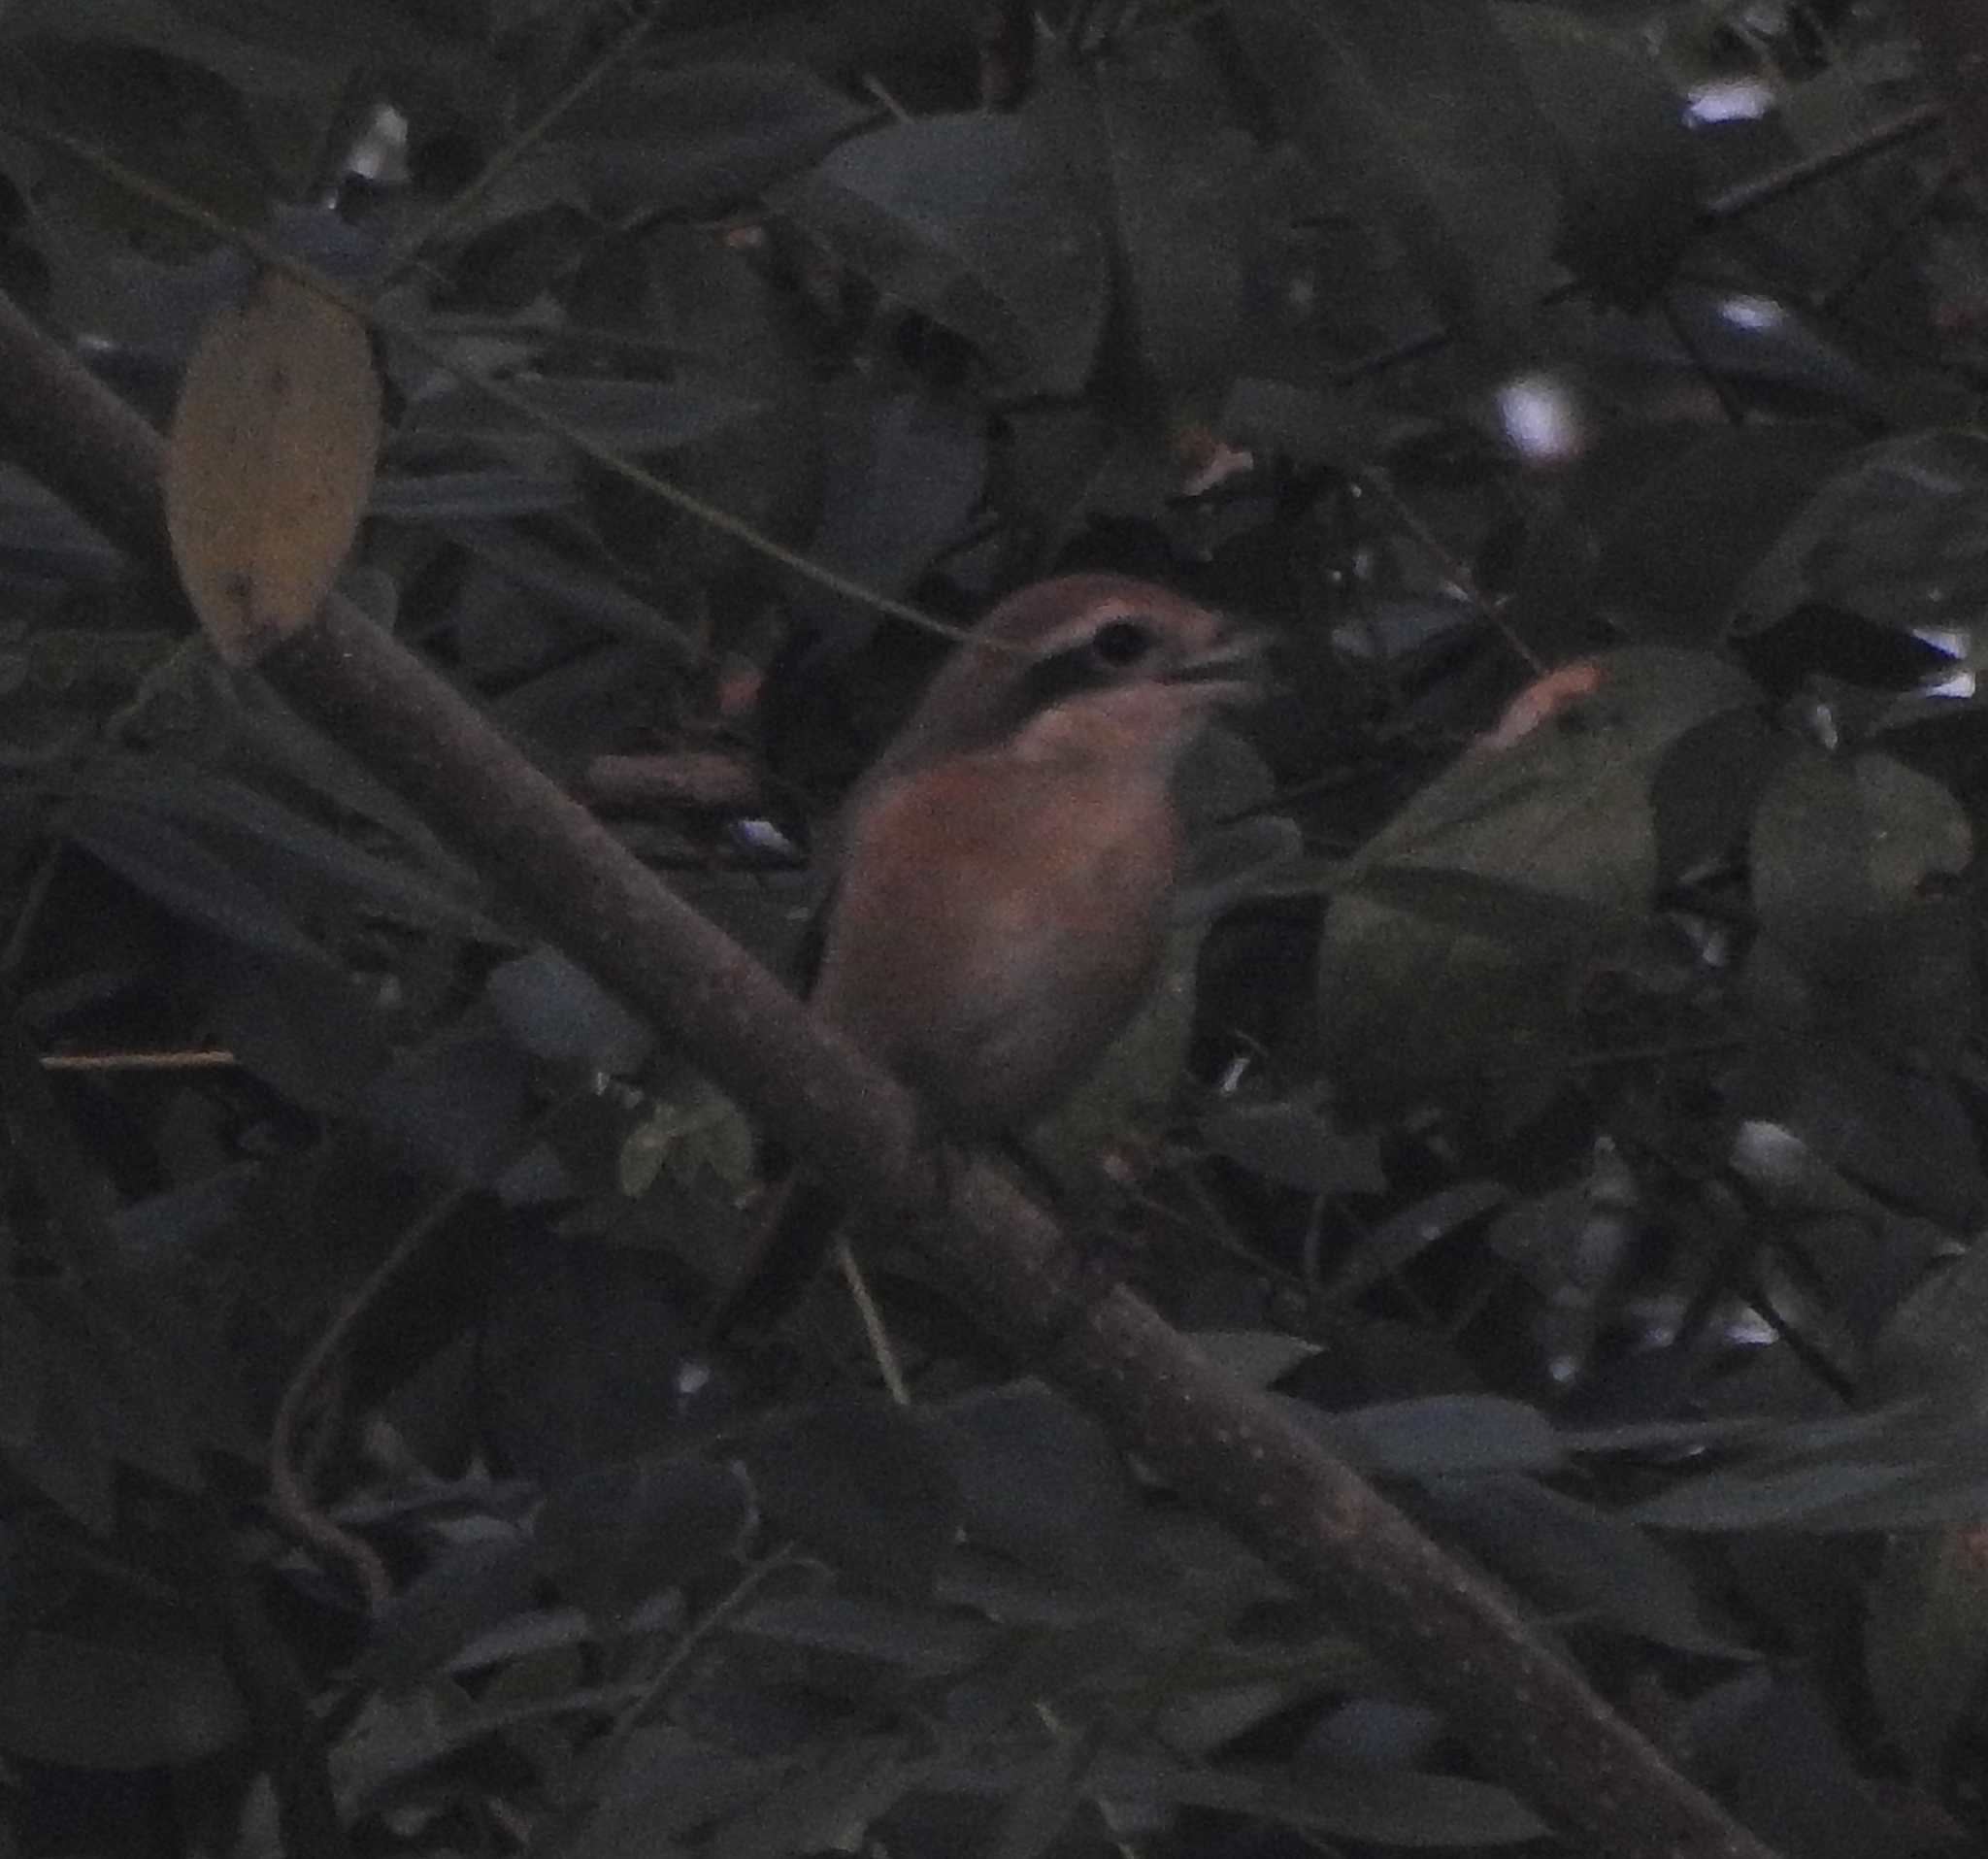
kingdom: Animalia
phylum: Chordata
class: Aves
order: Passeriformes
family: Laniidae
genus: Lanius
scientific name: Lanius cristatus
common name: Brown shrike
